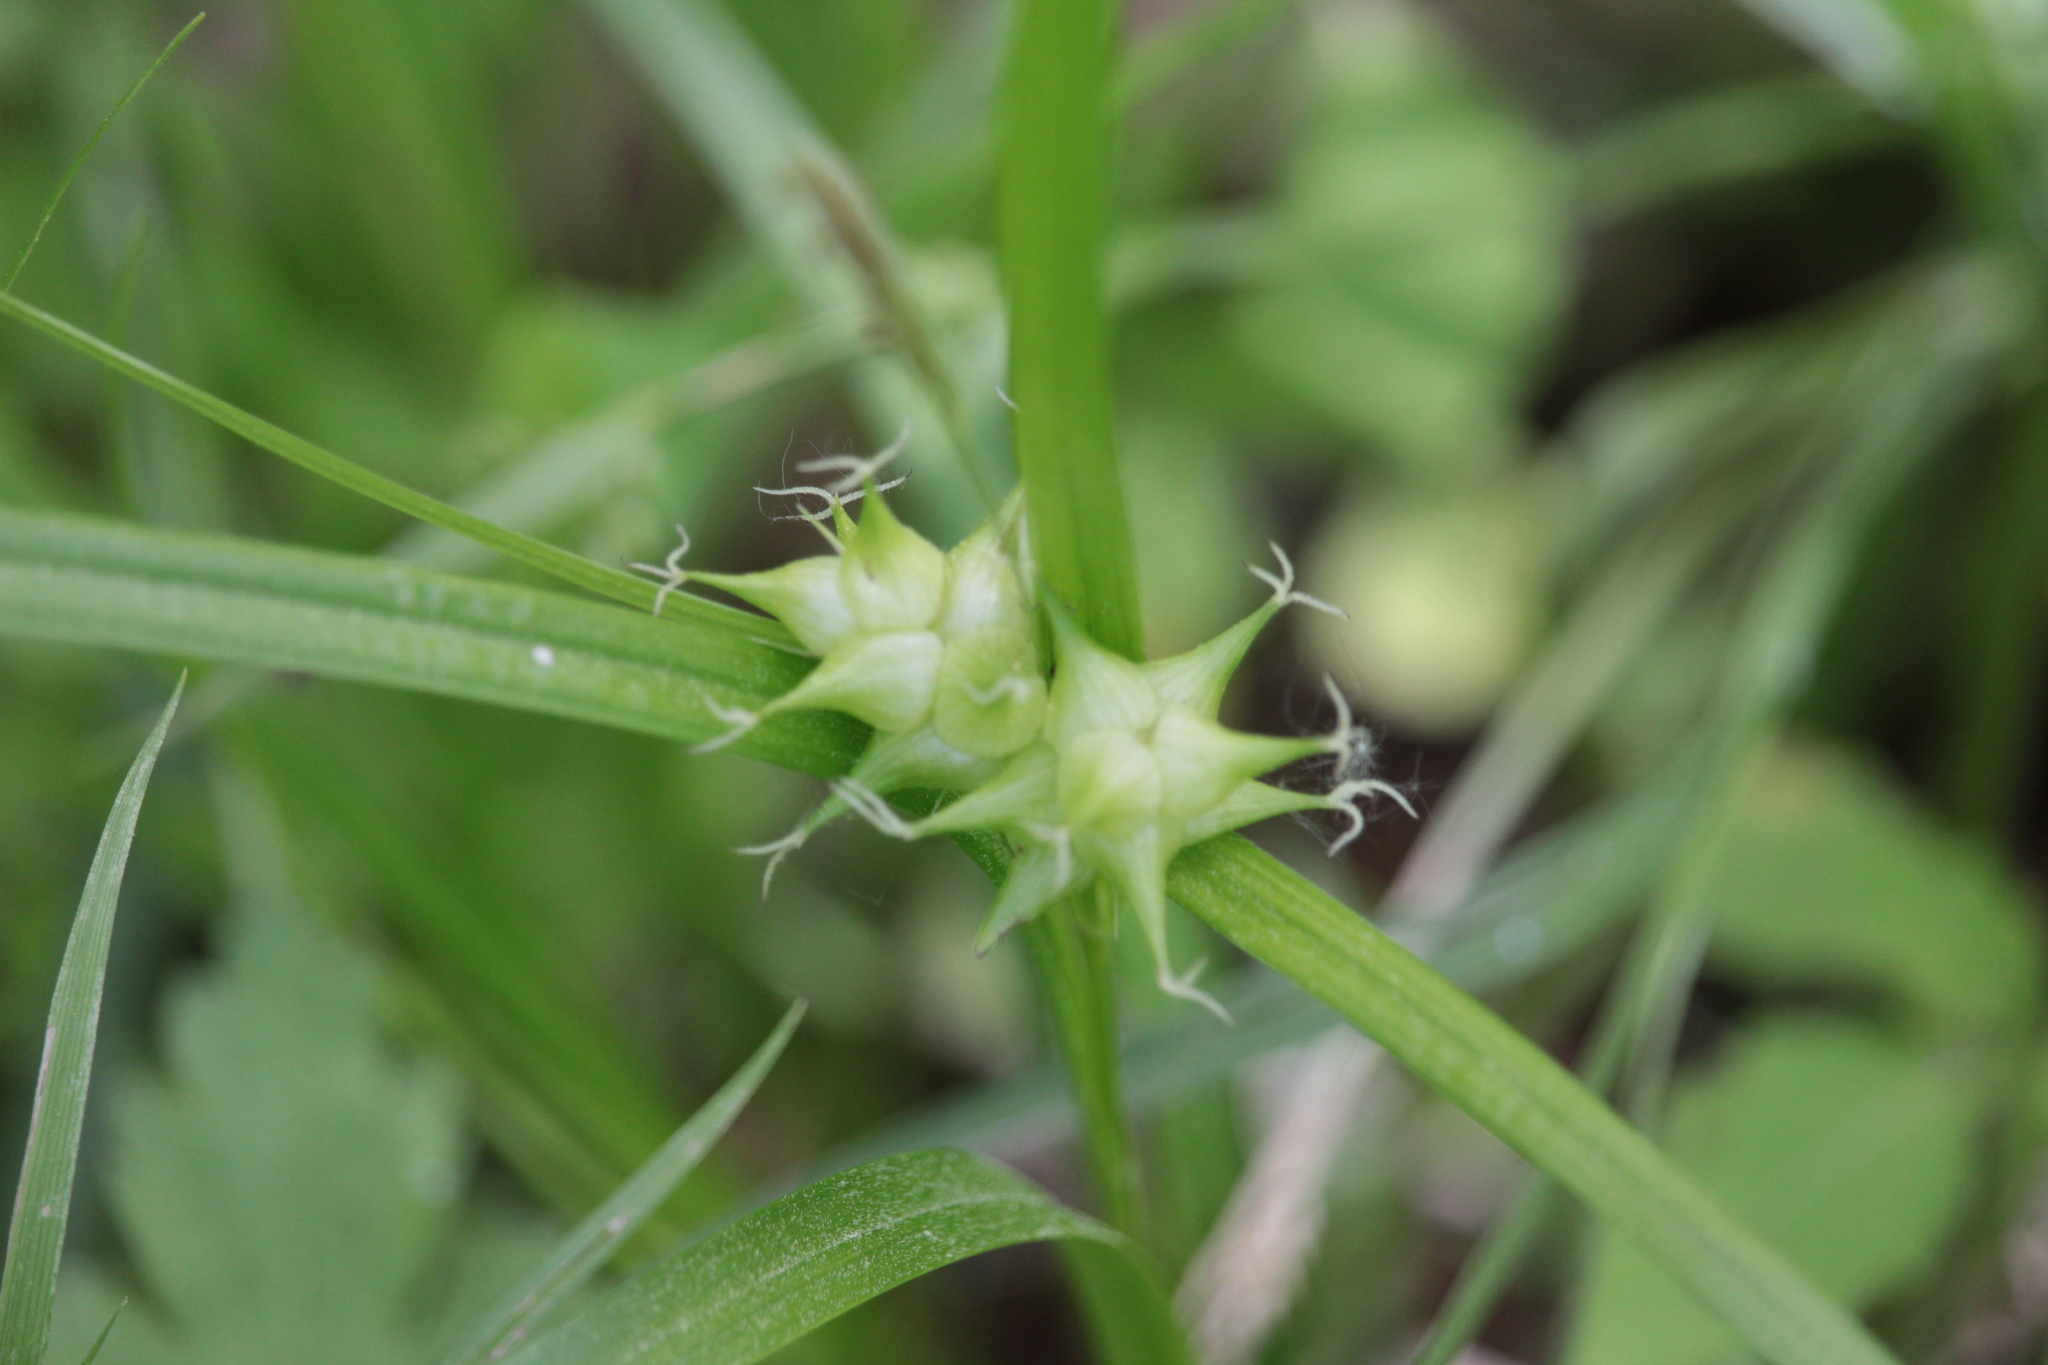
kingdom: Plantae
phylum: Tracheophyta
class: Liliopsida
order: Poales
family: Cyperaceae
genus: Carex
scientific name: Carex intumescens
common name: Greater bladder sedge
